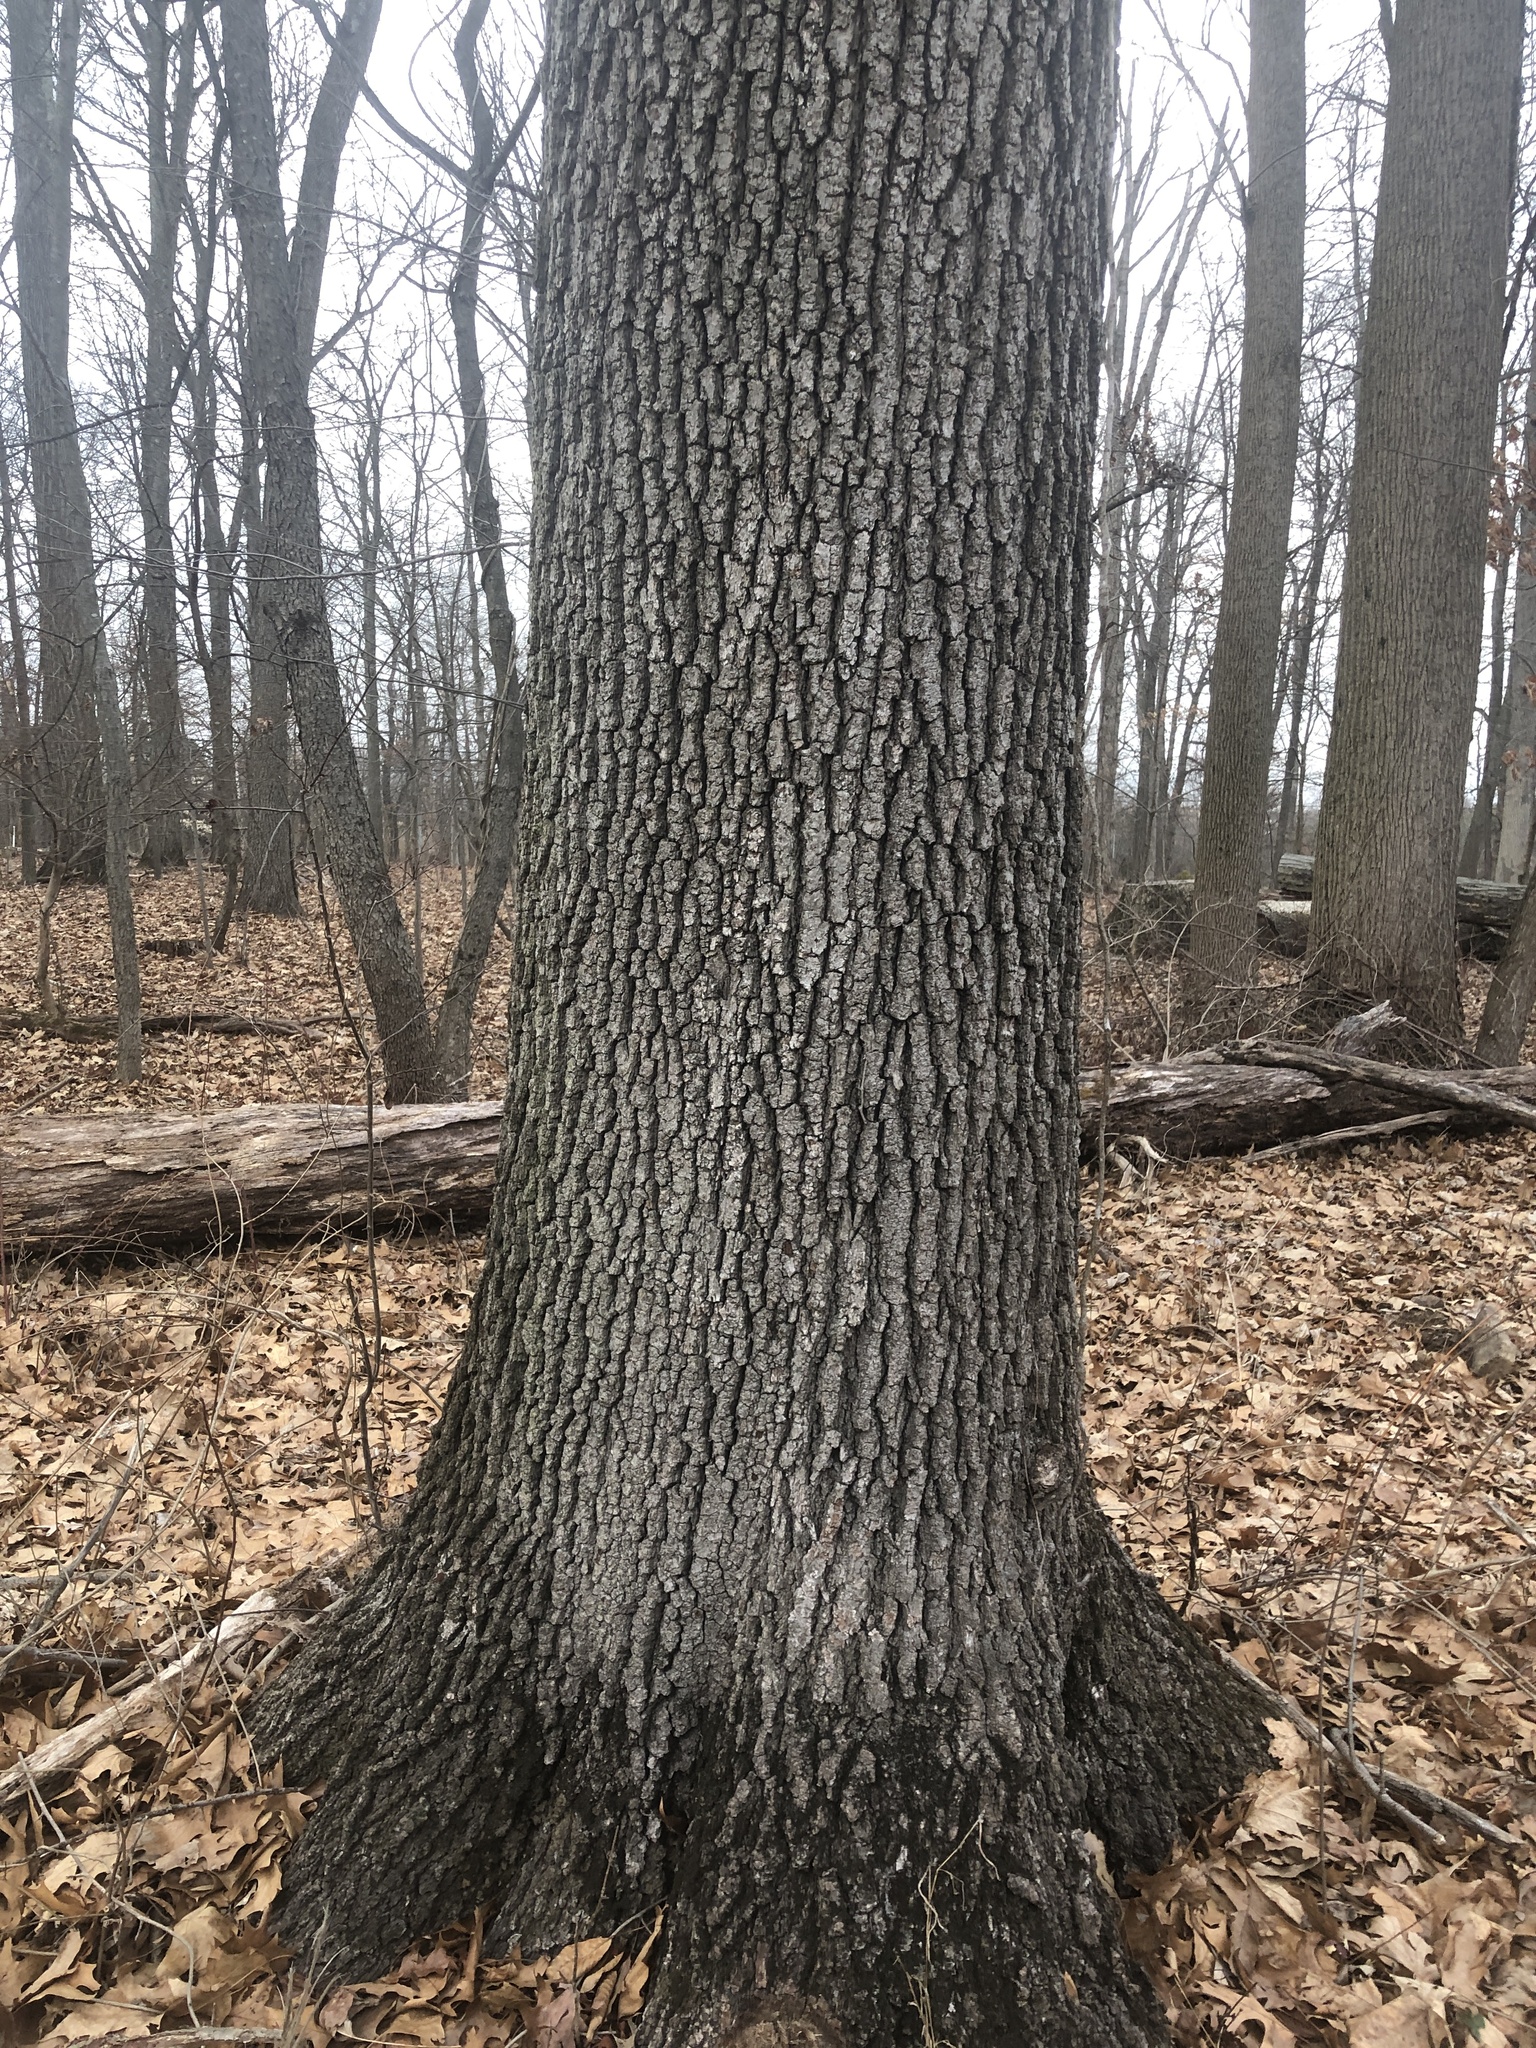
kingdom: Plantae
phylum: Tracheophyta
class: Magnoliopsida
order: Fagales
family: Fagaceae
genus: Quercus
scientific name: Quercus velutina
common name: Black oak
